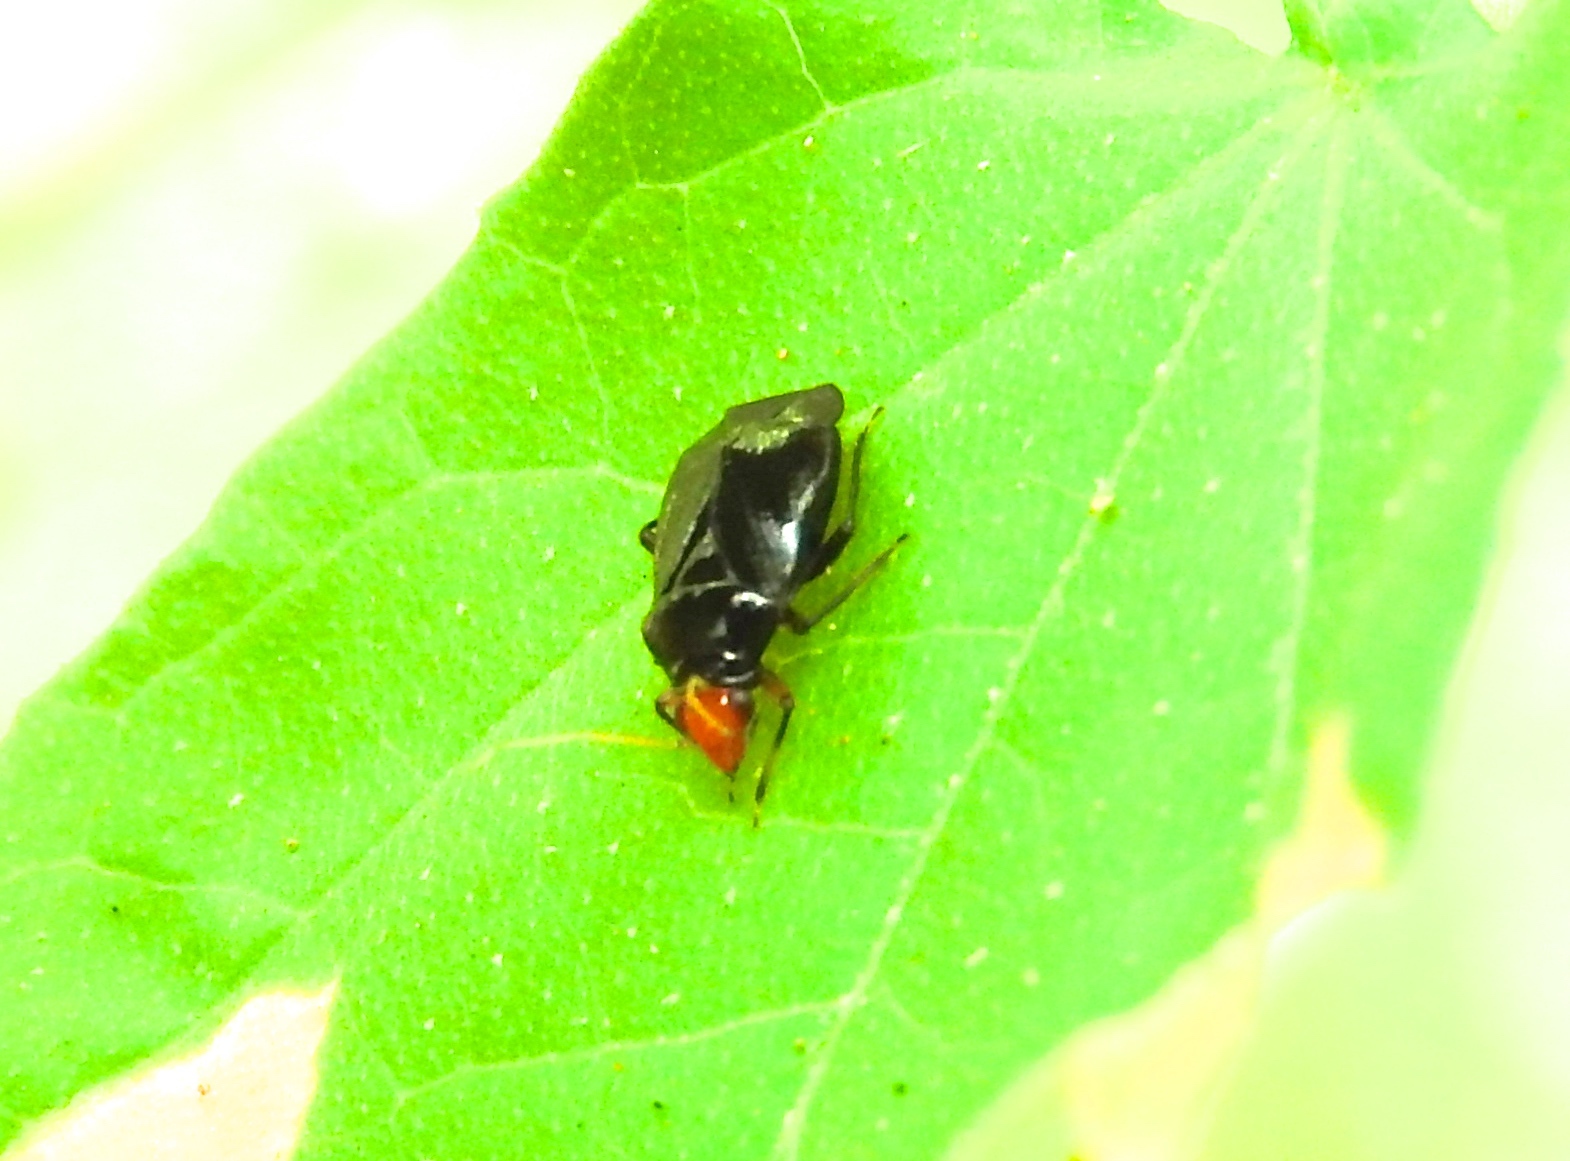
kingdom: Animalia
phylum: Arthropoda
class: Insecta
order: Hemiptera
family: Miridae
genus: Jornandinus
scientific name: Jornandinus grandis
